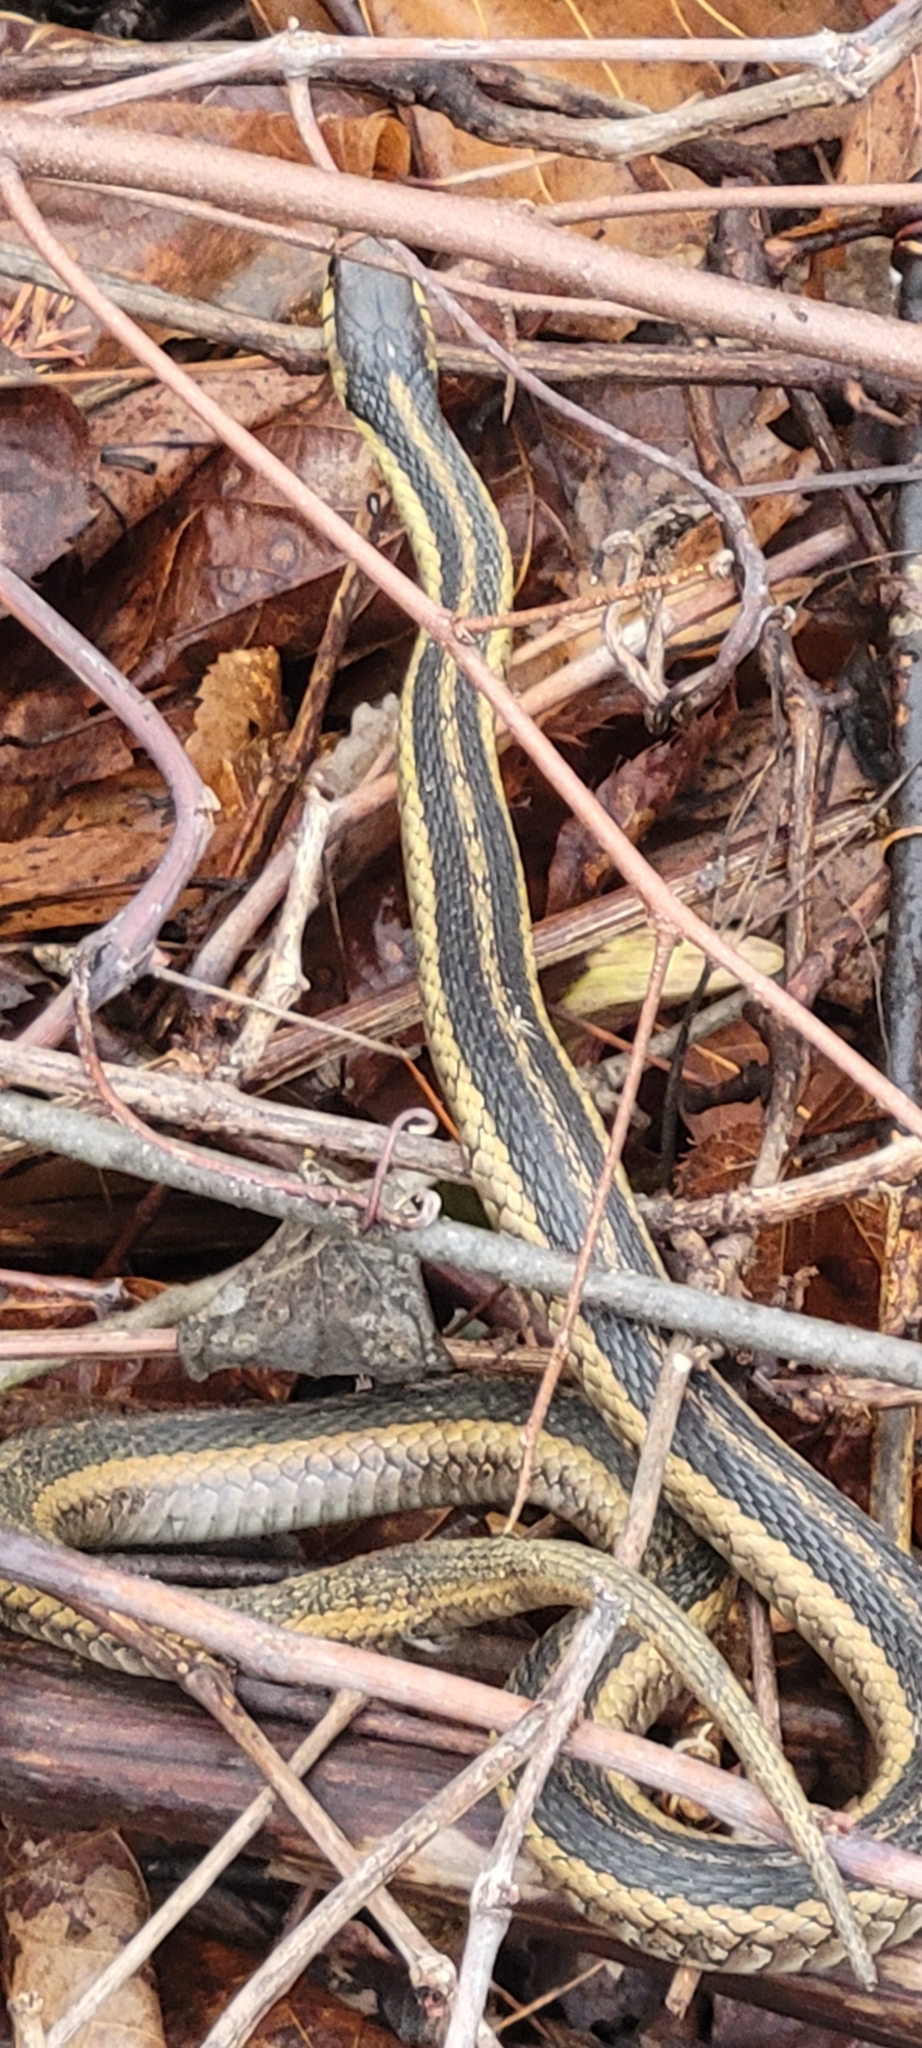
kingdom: Animalia
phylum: Chordata
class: Squamata
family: Colubridae
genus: Thamnophis
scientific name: Thamnophis sirtalis
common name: Common garter snake
